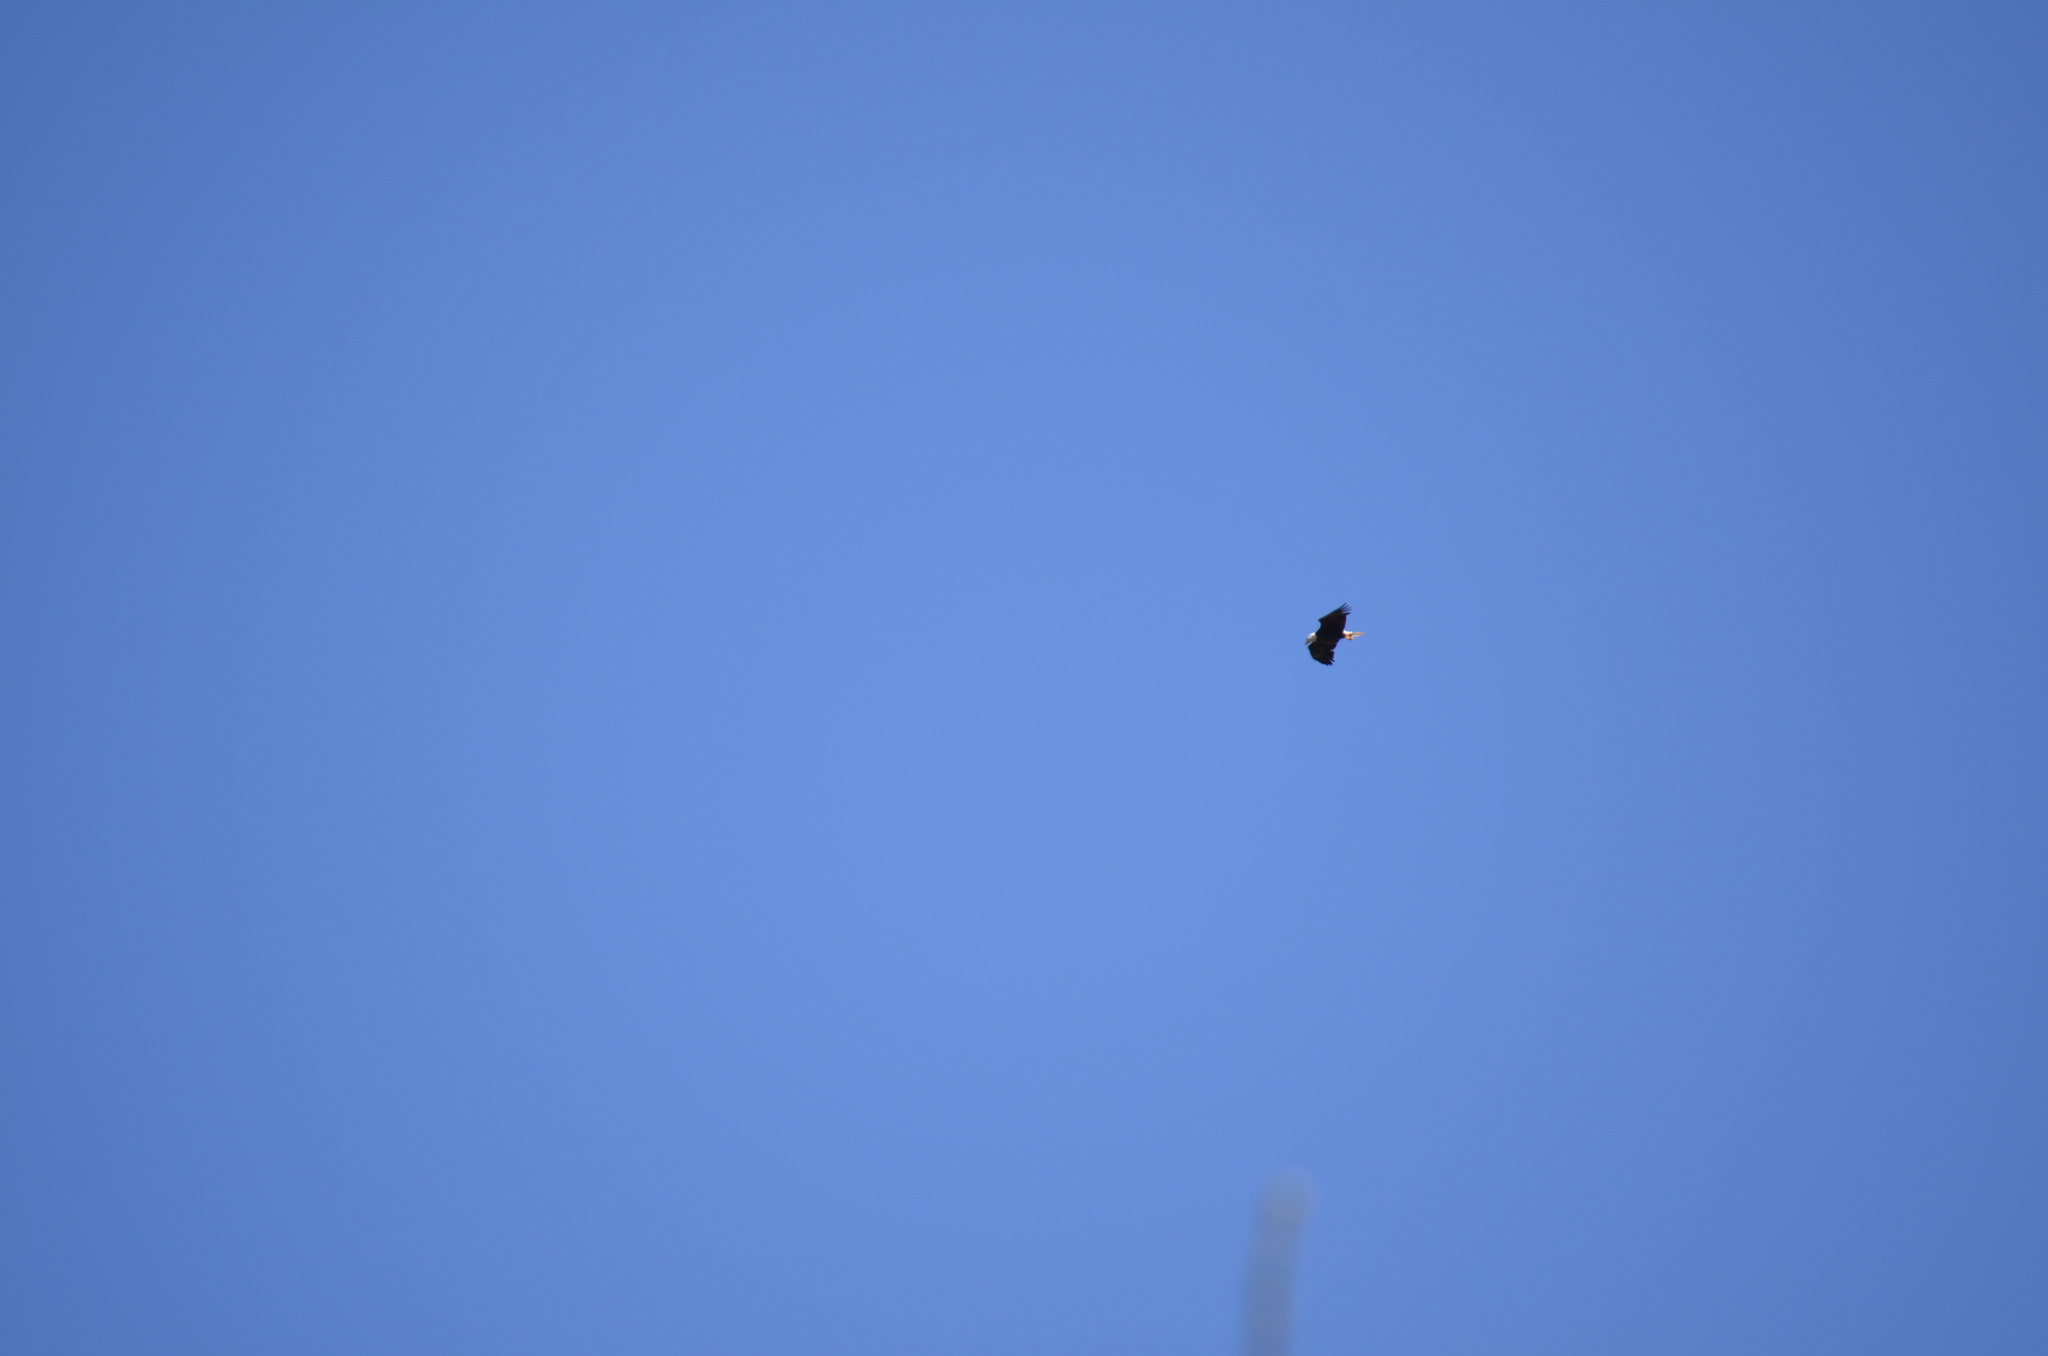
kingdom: Animalia
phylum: Chordata
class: Aves
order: Accipitriformes
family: Accipitridae
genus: Haliaeetus
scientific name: Haliaeetus leucocephalus
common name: Bald eagle
